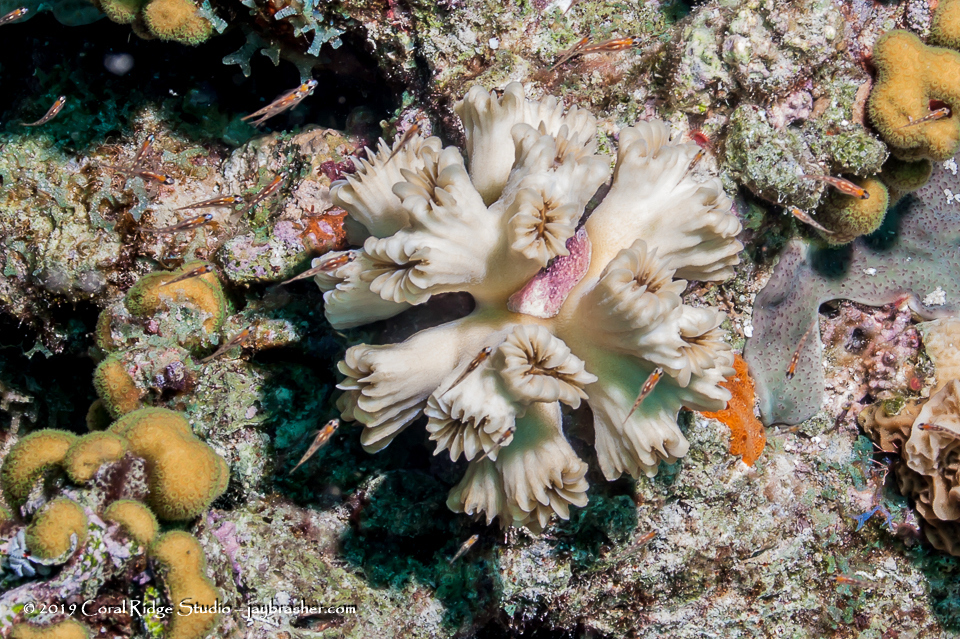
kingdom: Animalia
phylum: Cnidaria
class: Anthozoa
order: Scleractinia
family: Meandrinidae
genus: Eusmilia
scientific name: Eusmilia fastigiata
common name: Smooth flower coral
